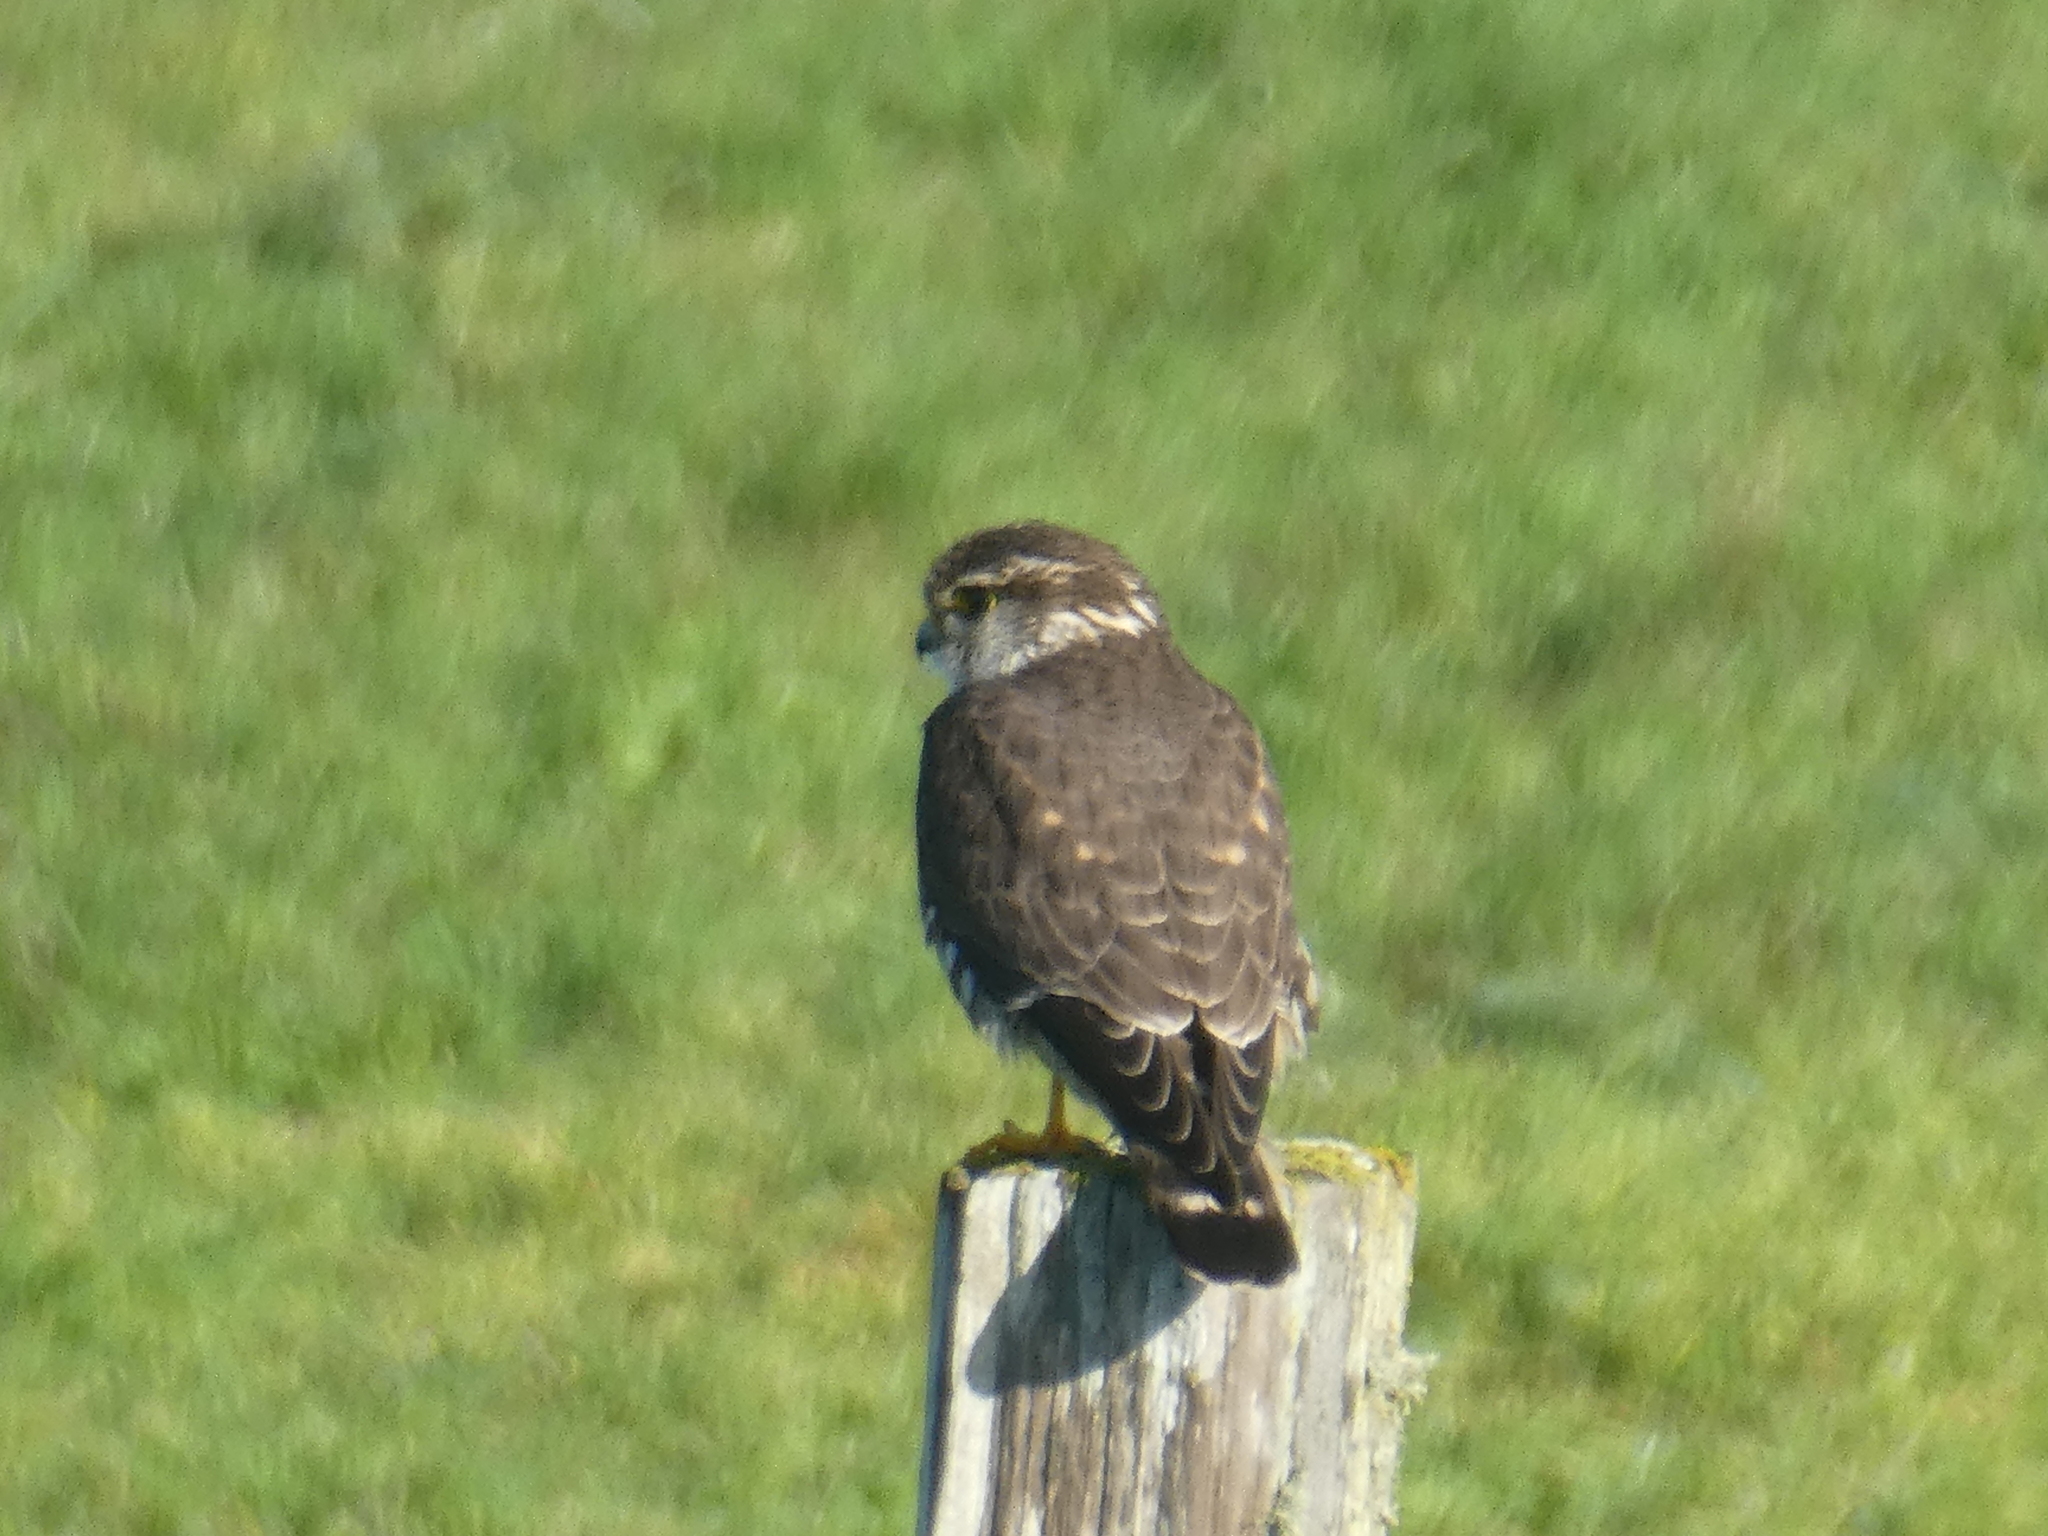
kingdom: Animalia
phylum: Chordata
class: Aves
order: Falconiformes
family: Falconidae
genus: Falco
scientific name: Falco columbarius
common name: Merlin
